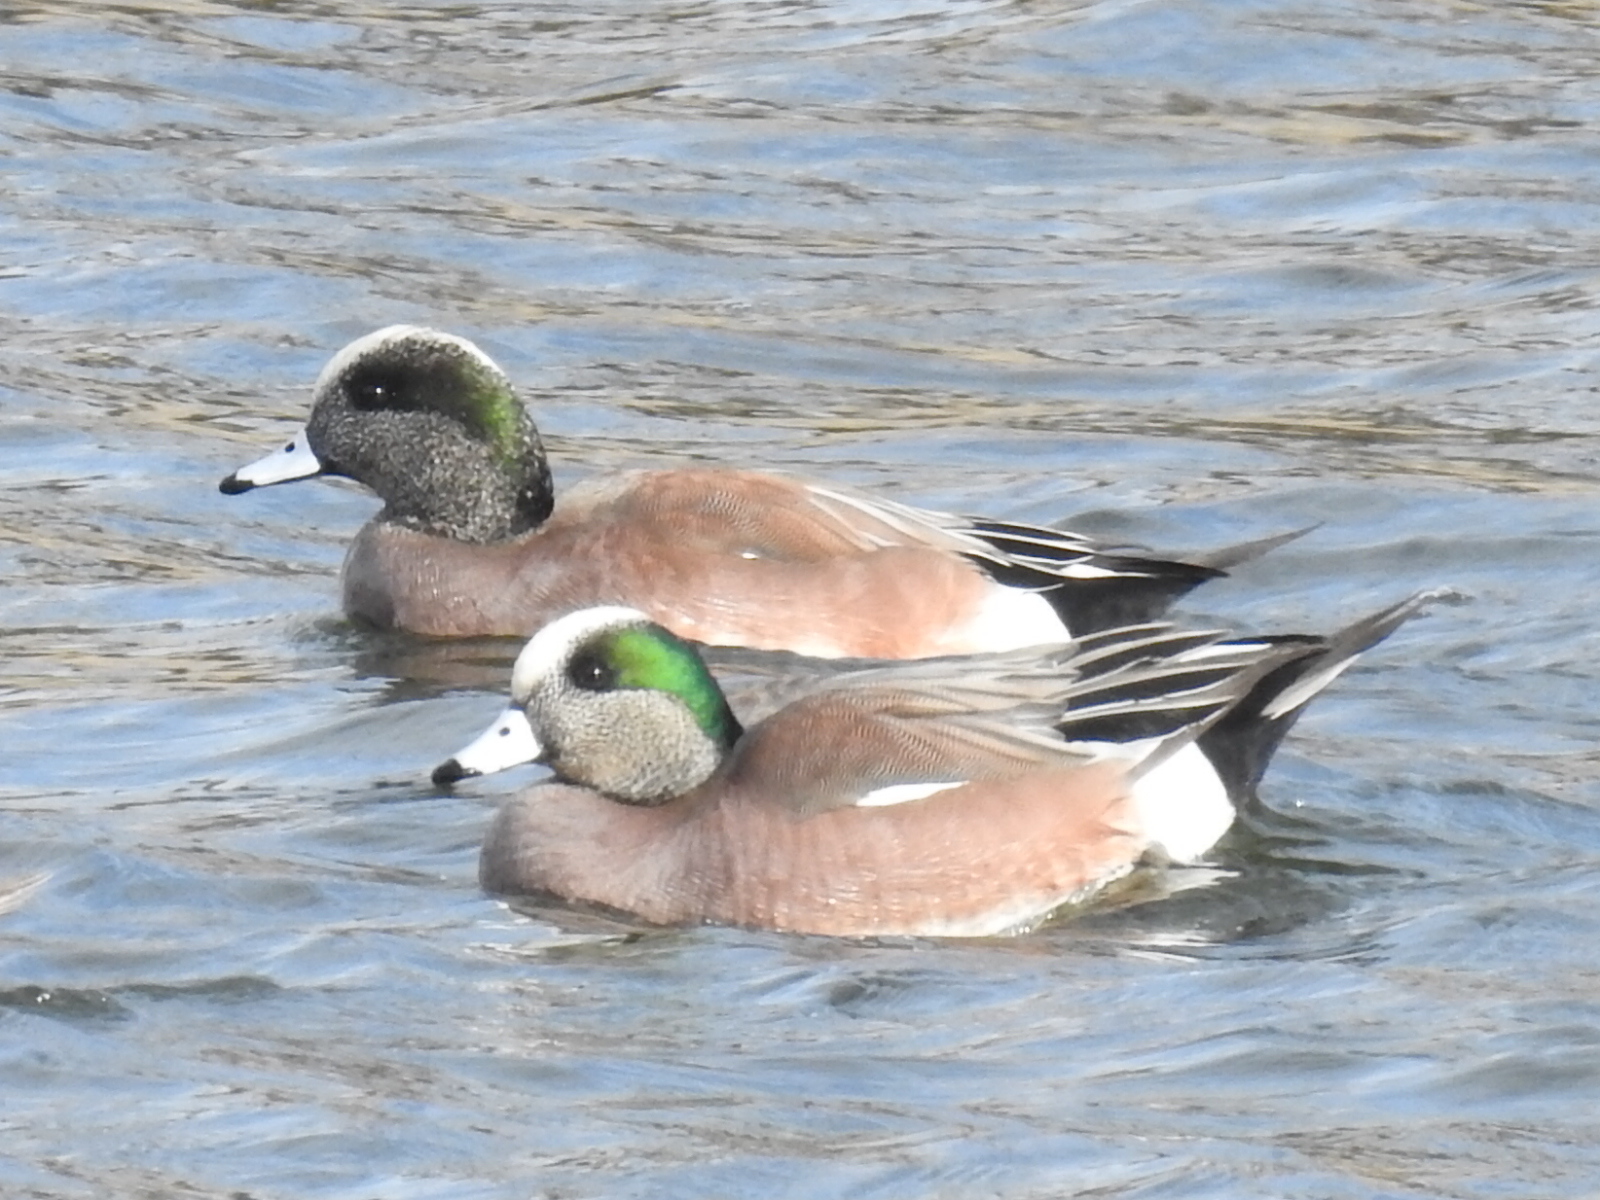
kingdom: Animalia
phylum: Chordata
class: Aves
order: Anseriformes
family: Anatidae
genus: Mareca
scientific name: Mareca americana
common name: American wigeon
